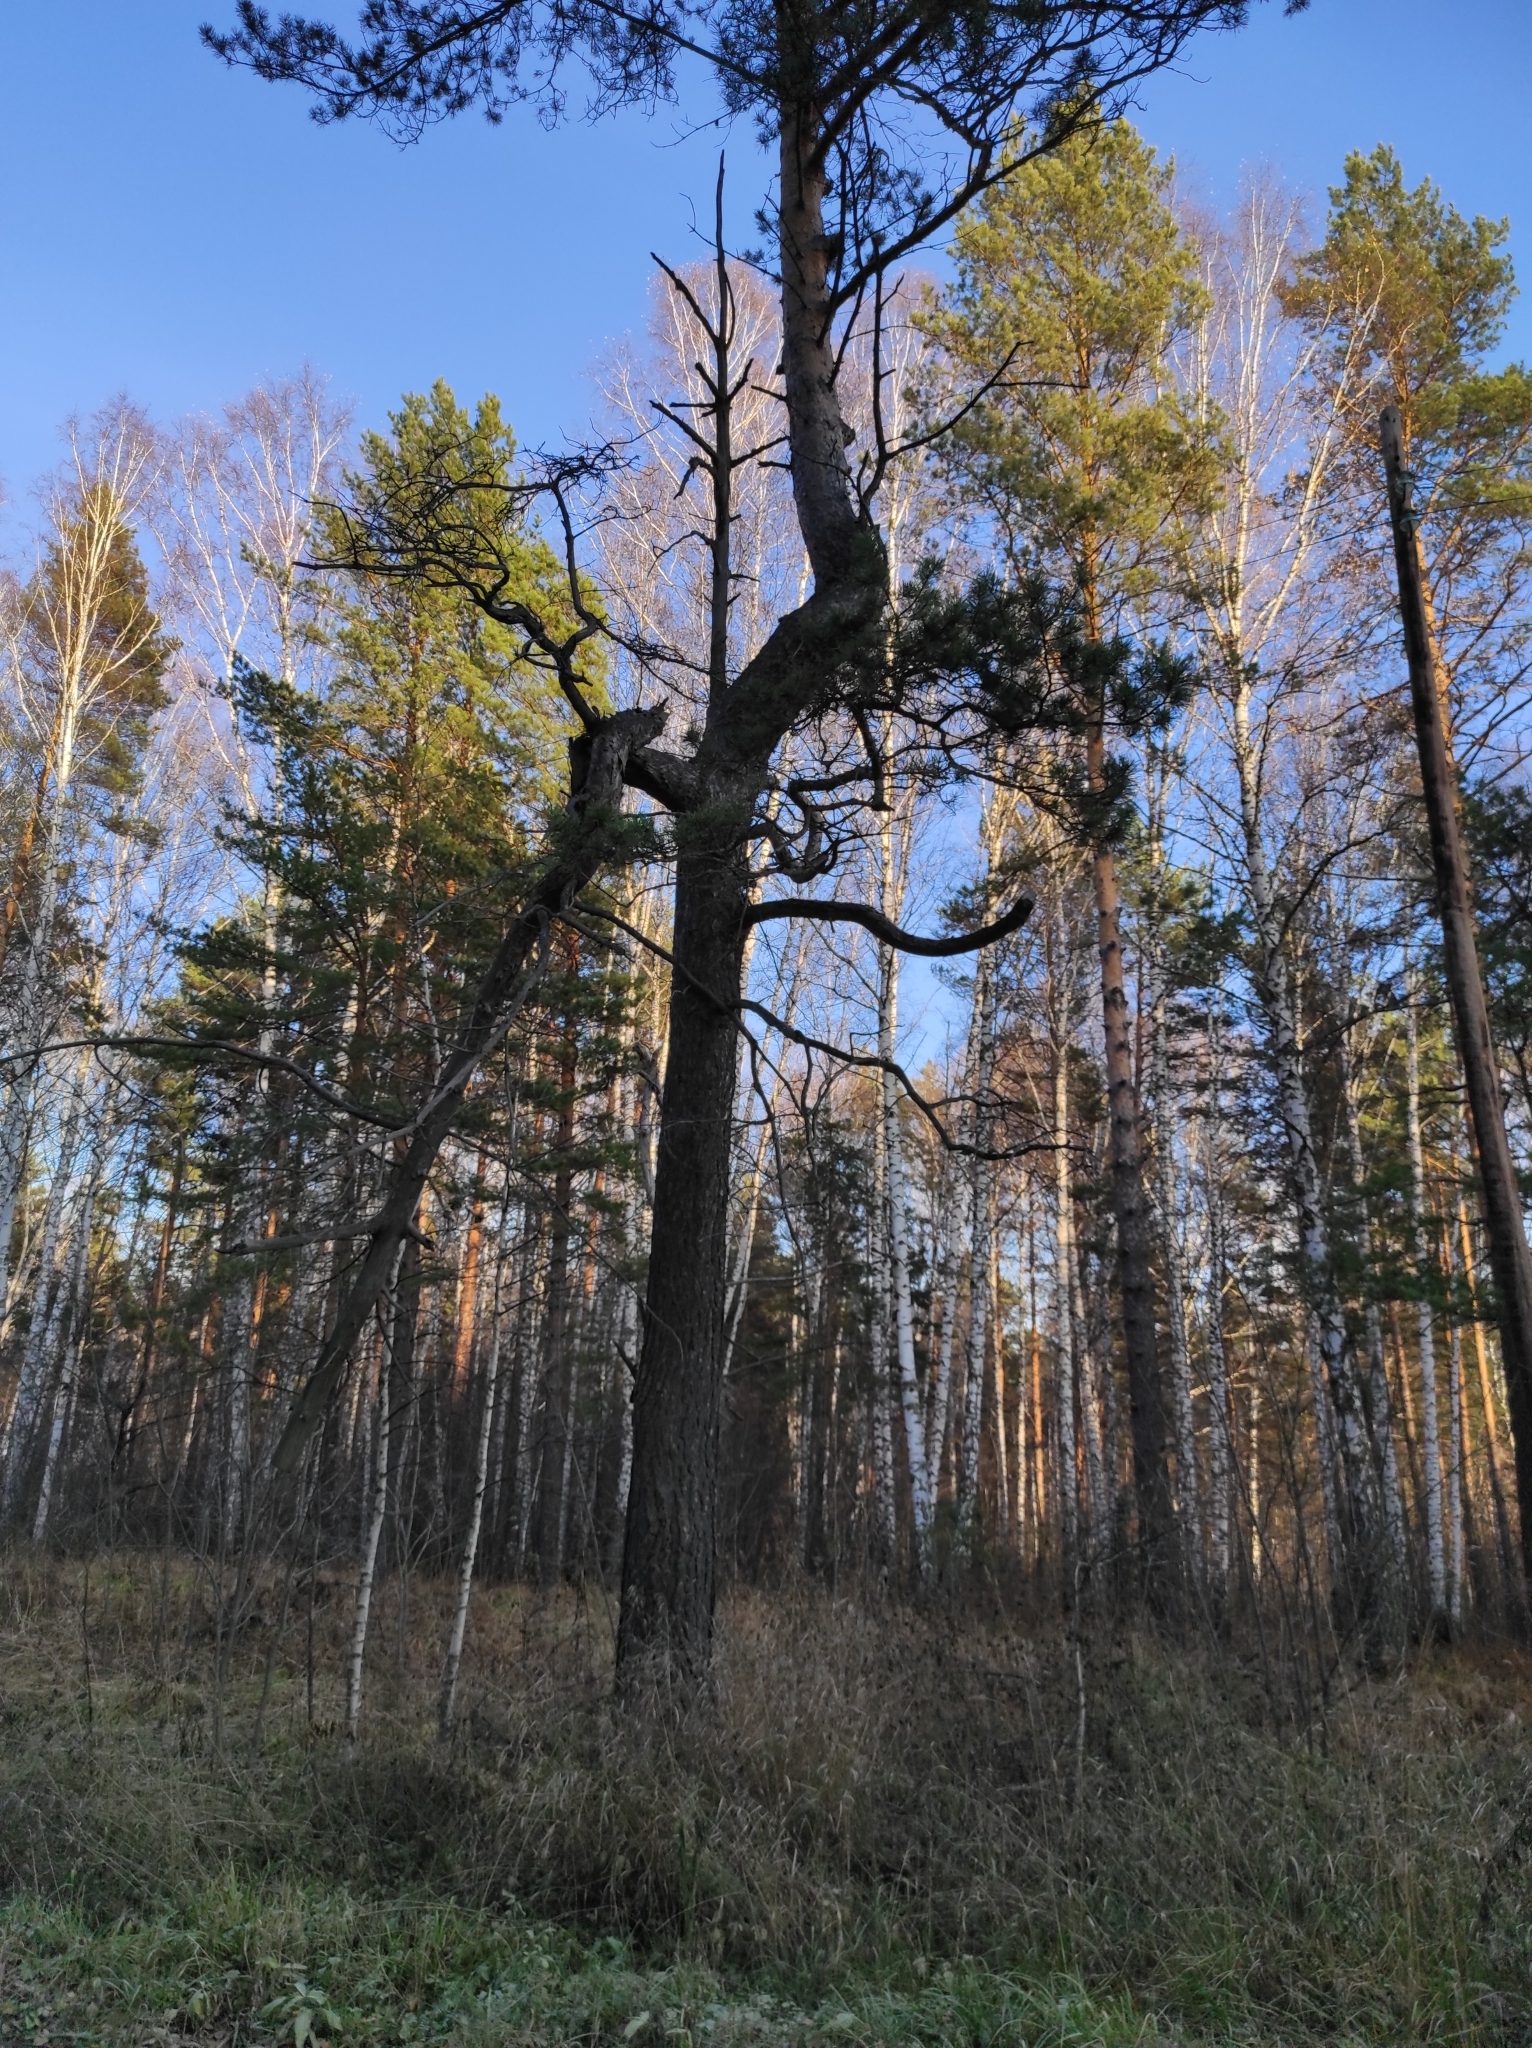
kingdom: Plantae
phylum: Tracheophyta
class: Pinopsida
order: Pinales
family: Pinaceae
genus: Pinus
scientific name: Pinus sylvestris
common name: Scots pine
